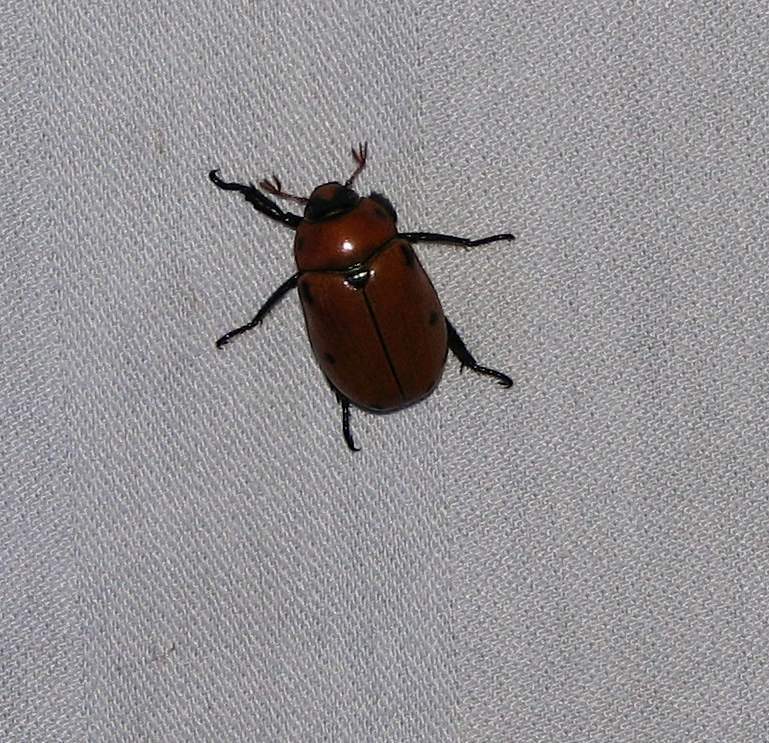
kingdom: Animalia
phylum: Arthropoda
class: Insecta
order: Coleoptera
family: Scarabaeidae
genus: Pelidnota
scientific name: Pelidnota punctata
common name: Grapevine beetle
